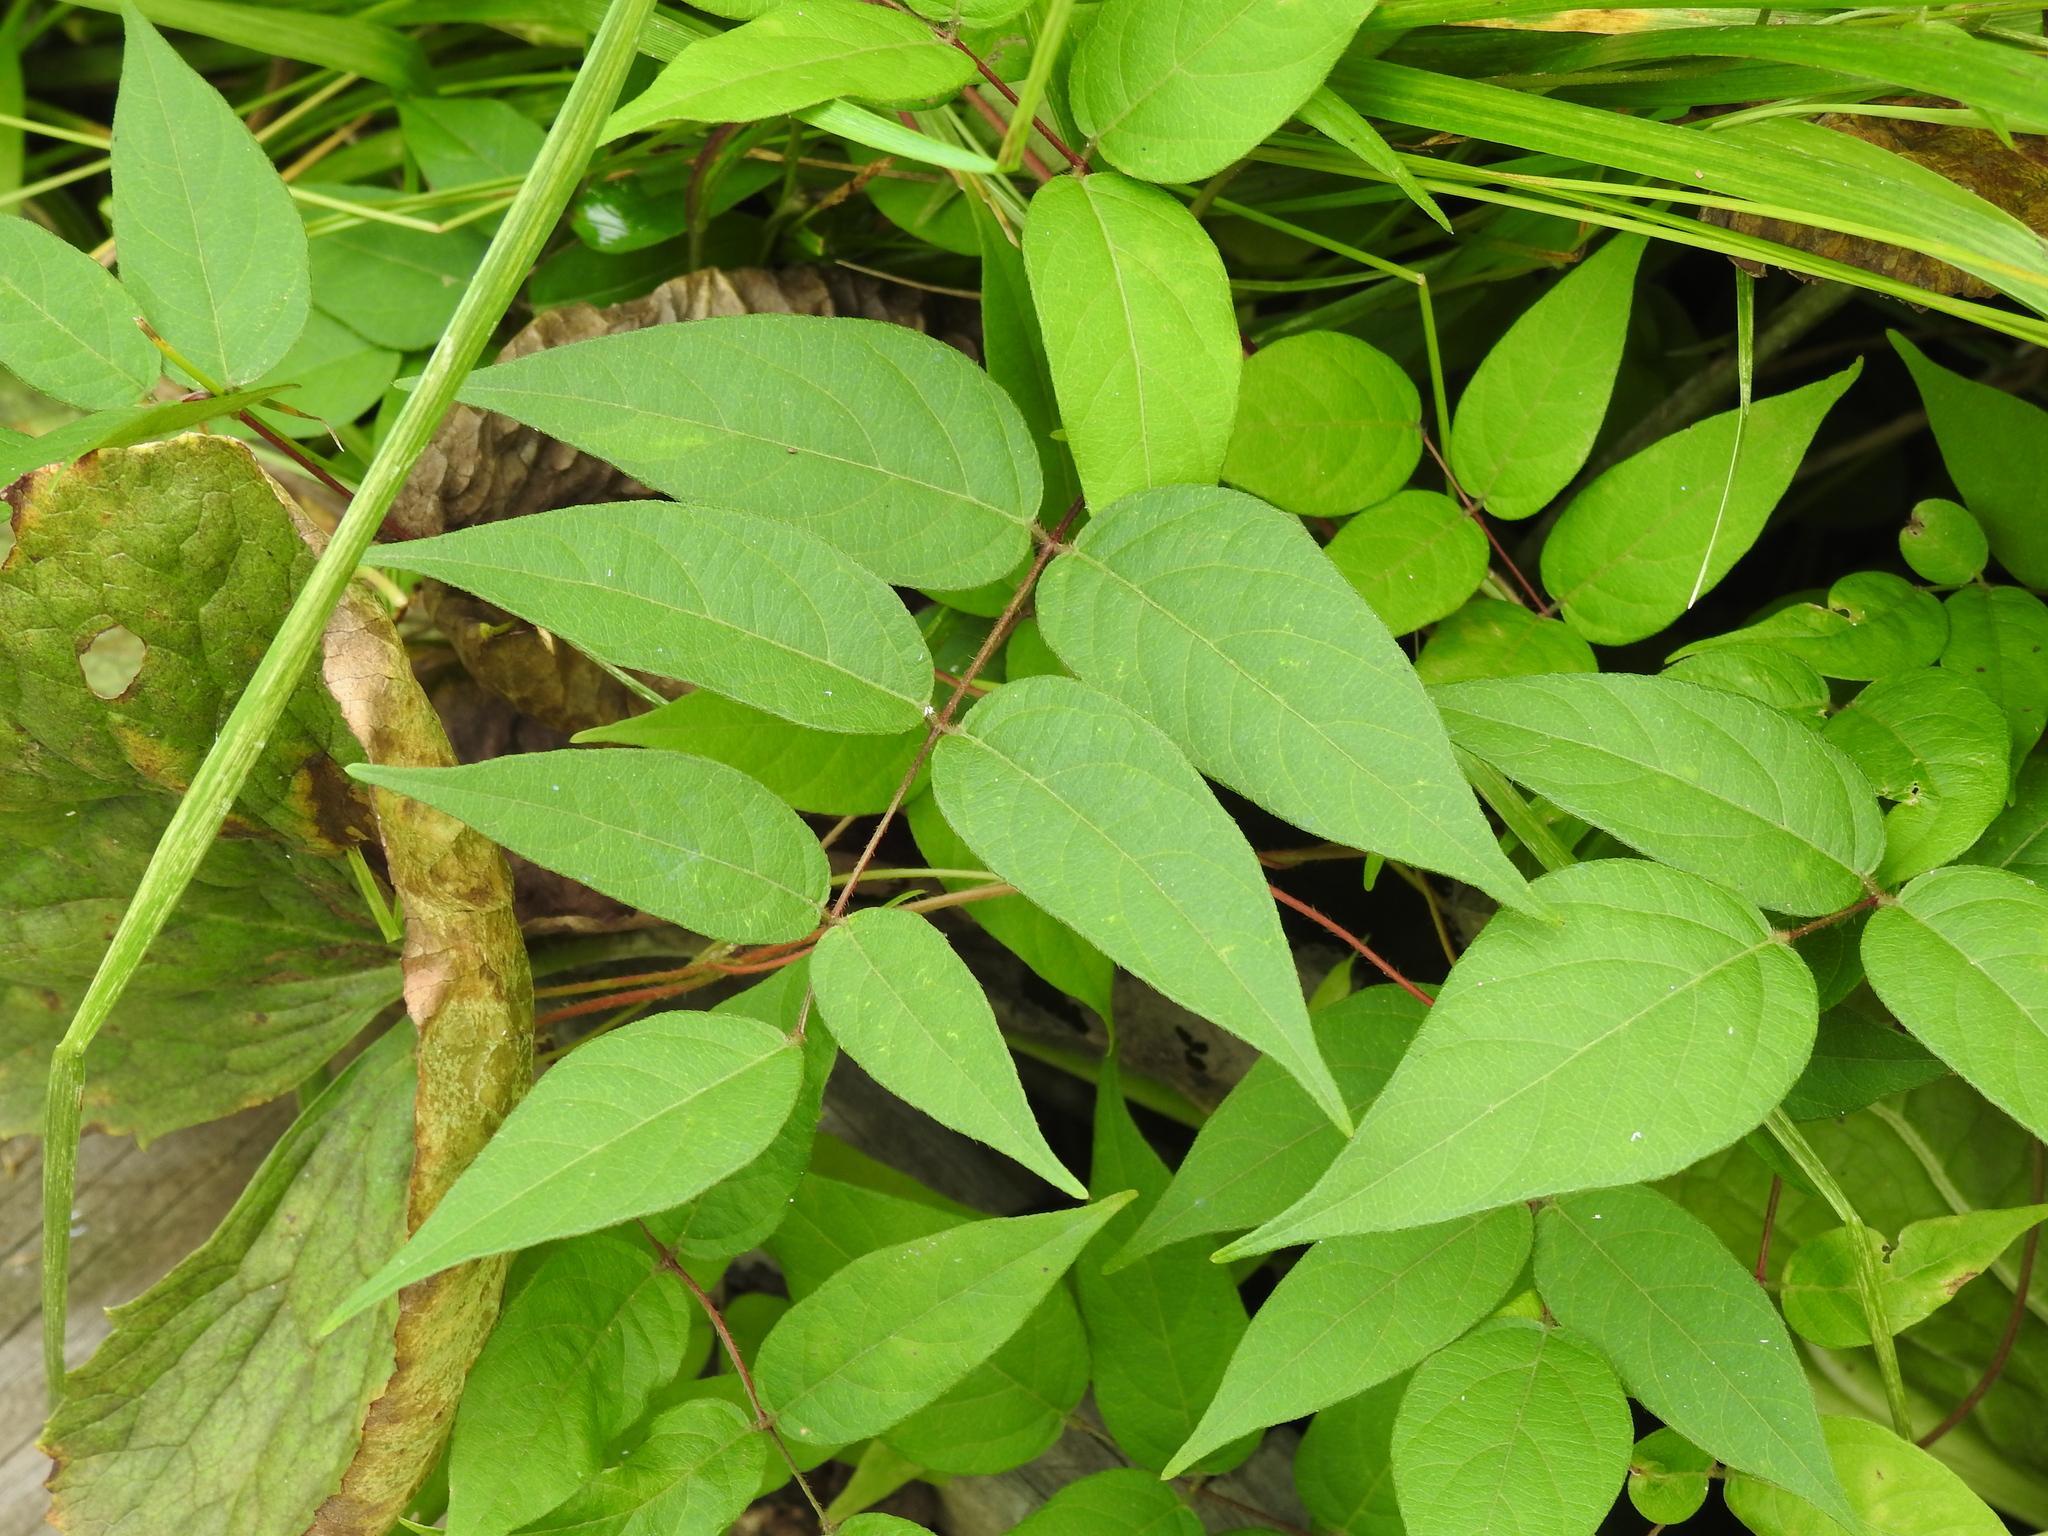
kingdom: Plantae
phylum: Tracheophyta
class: Magnoliopsida
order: Fabales
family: Fabaceae
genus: Apios
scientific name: Apios americana
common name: American potato-bean
